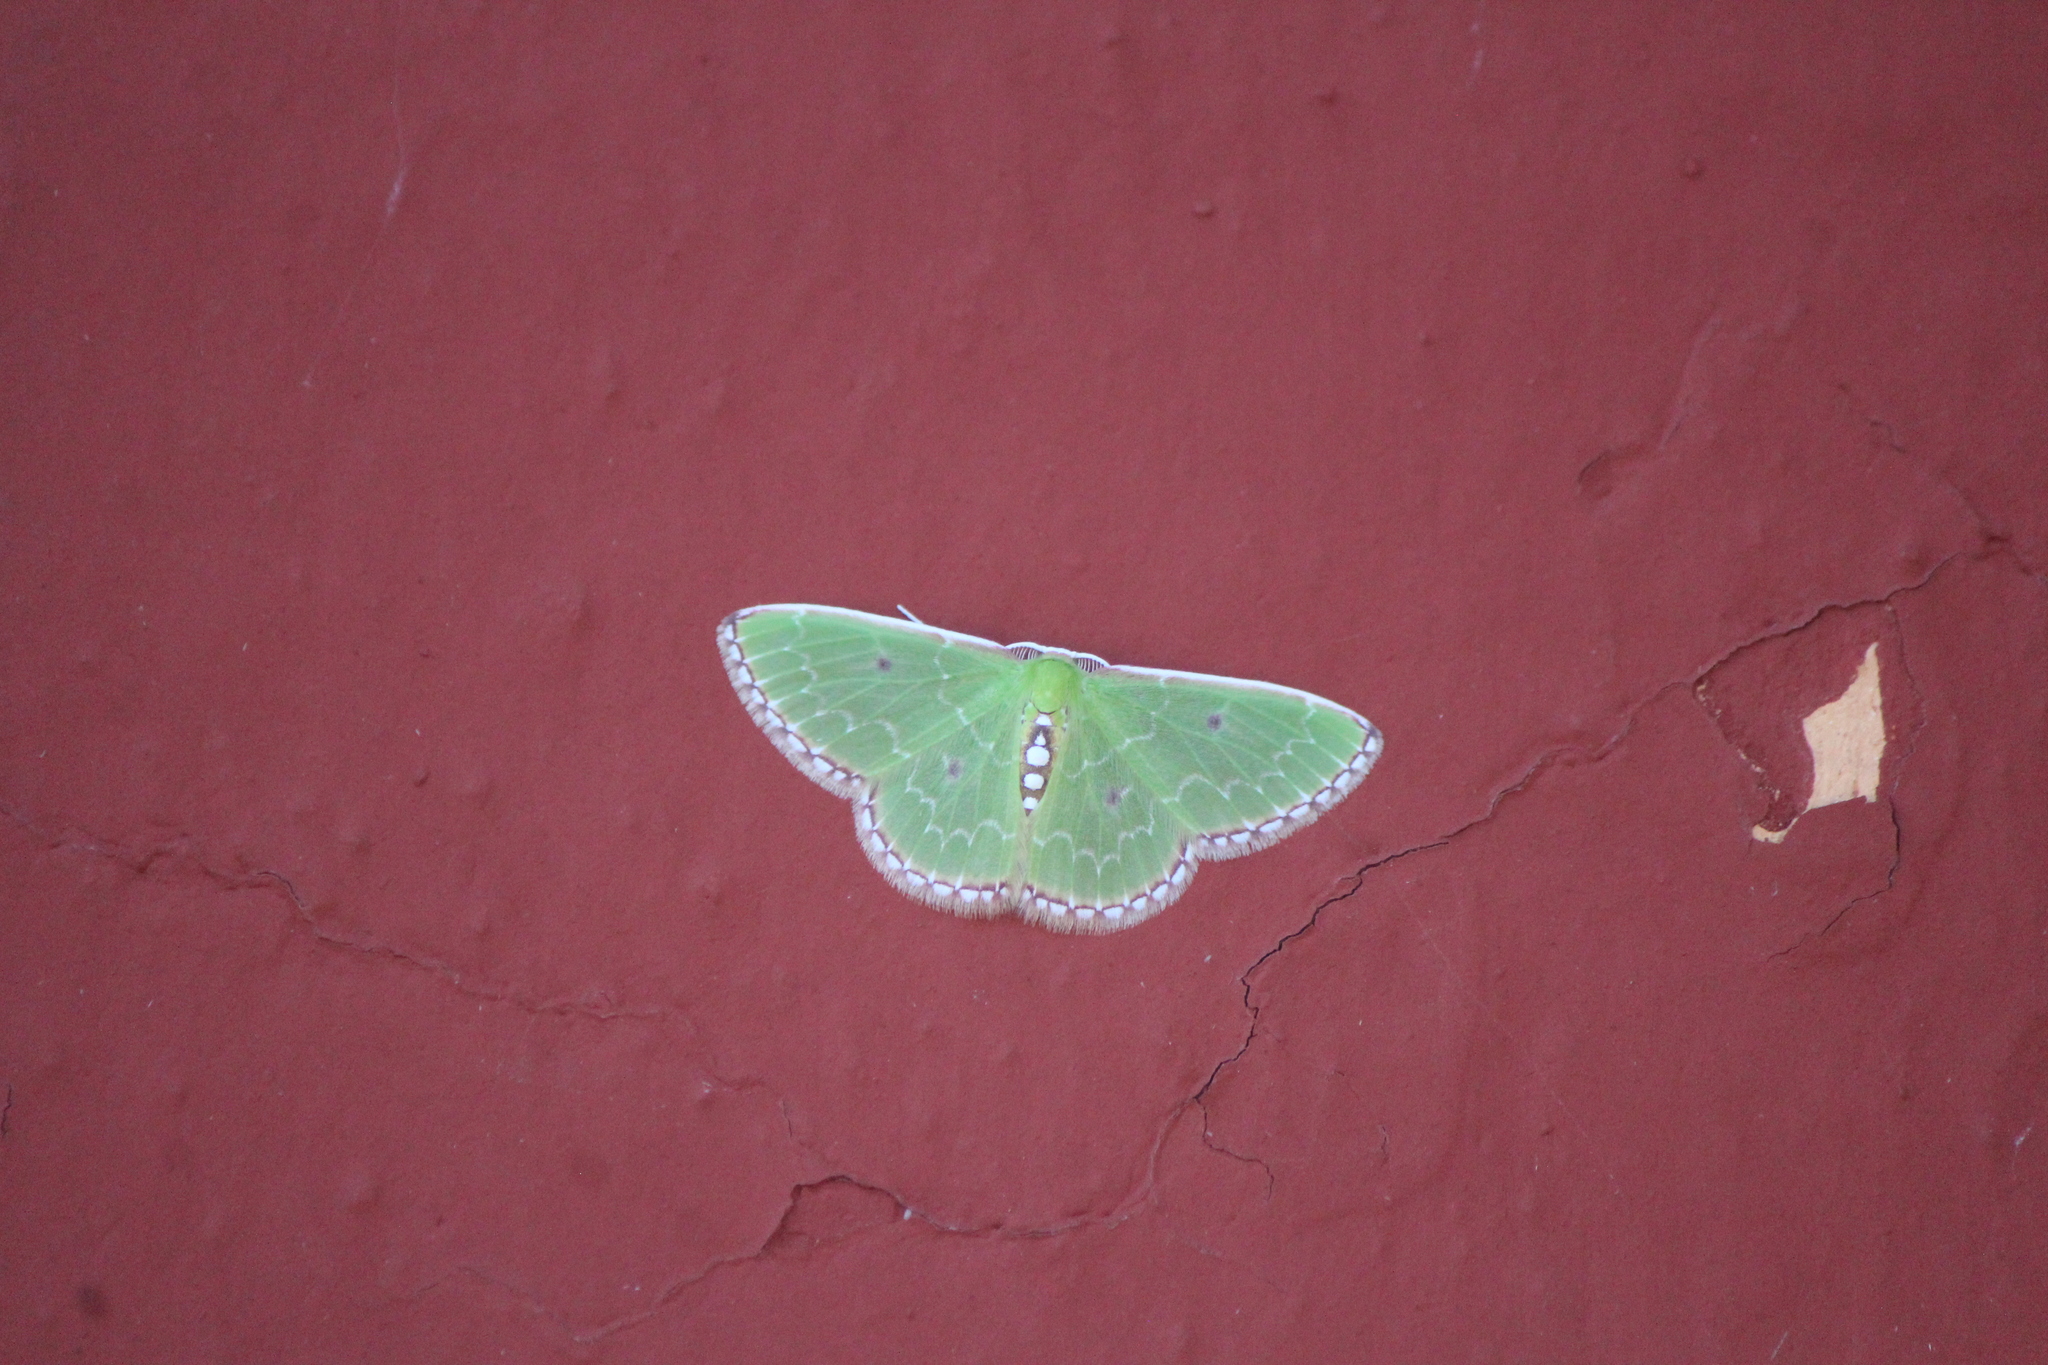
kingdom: Animalia
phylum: Arthropoda
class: Insecta
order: Lepidoptera
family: Geometridae
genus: Synchlora
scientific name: Synchlora noel
